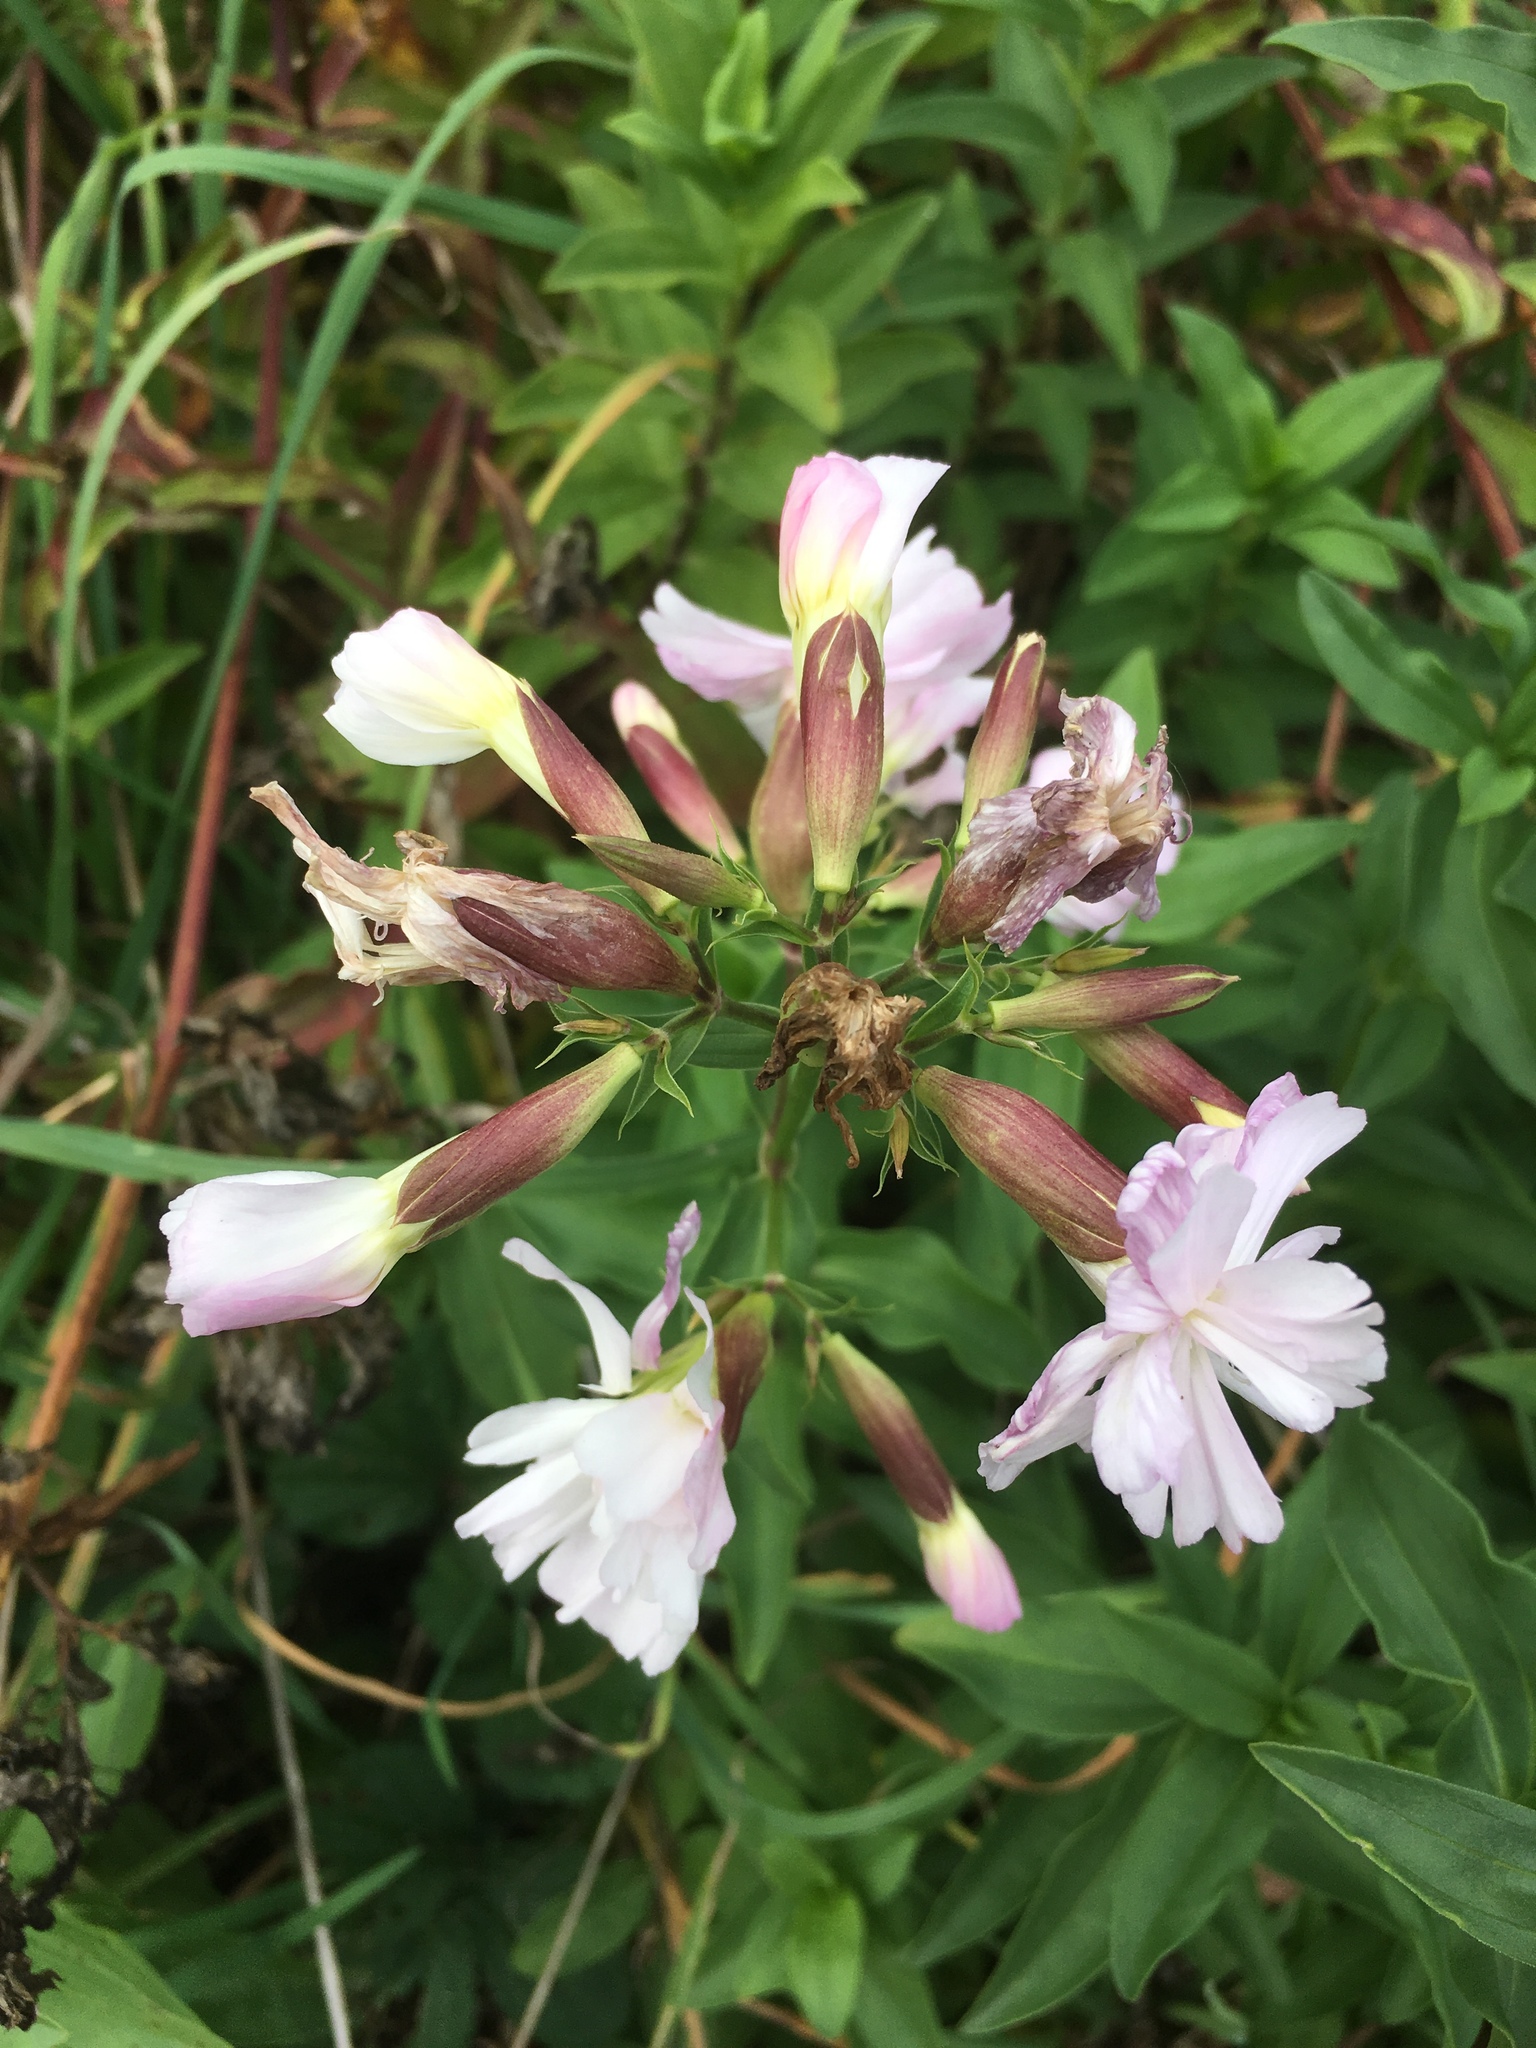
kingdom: Plantae
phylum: Tracheophyta
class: Magnoliopsida
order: Caryophyllales
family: Caryophyllaceae
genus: Saponaria
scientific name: Saponaria officinalis
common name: Soapwort
